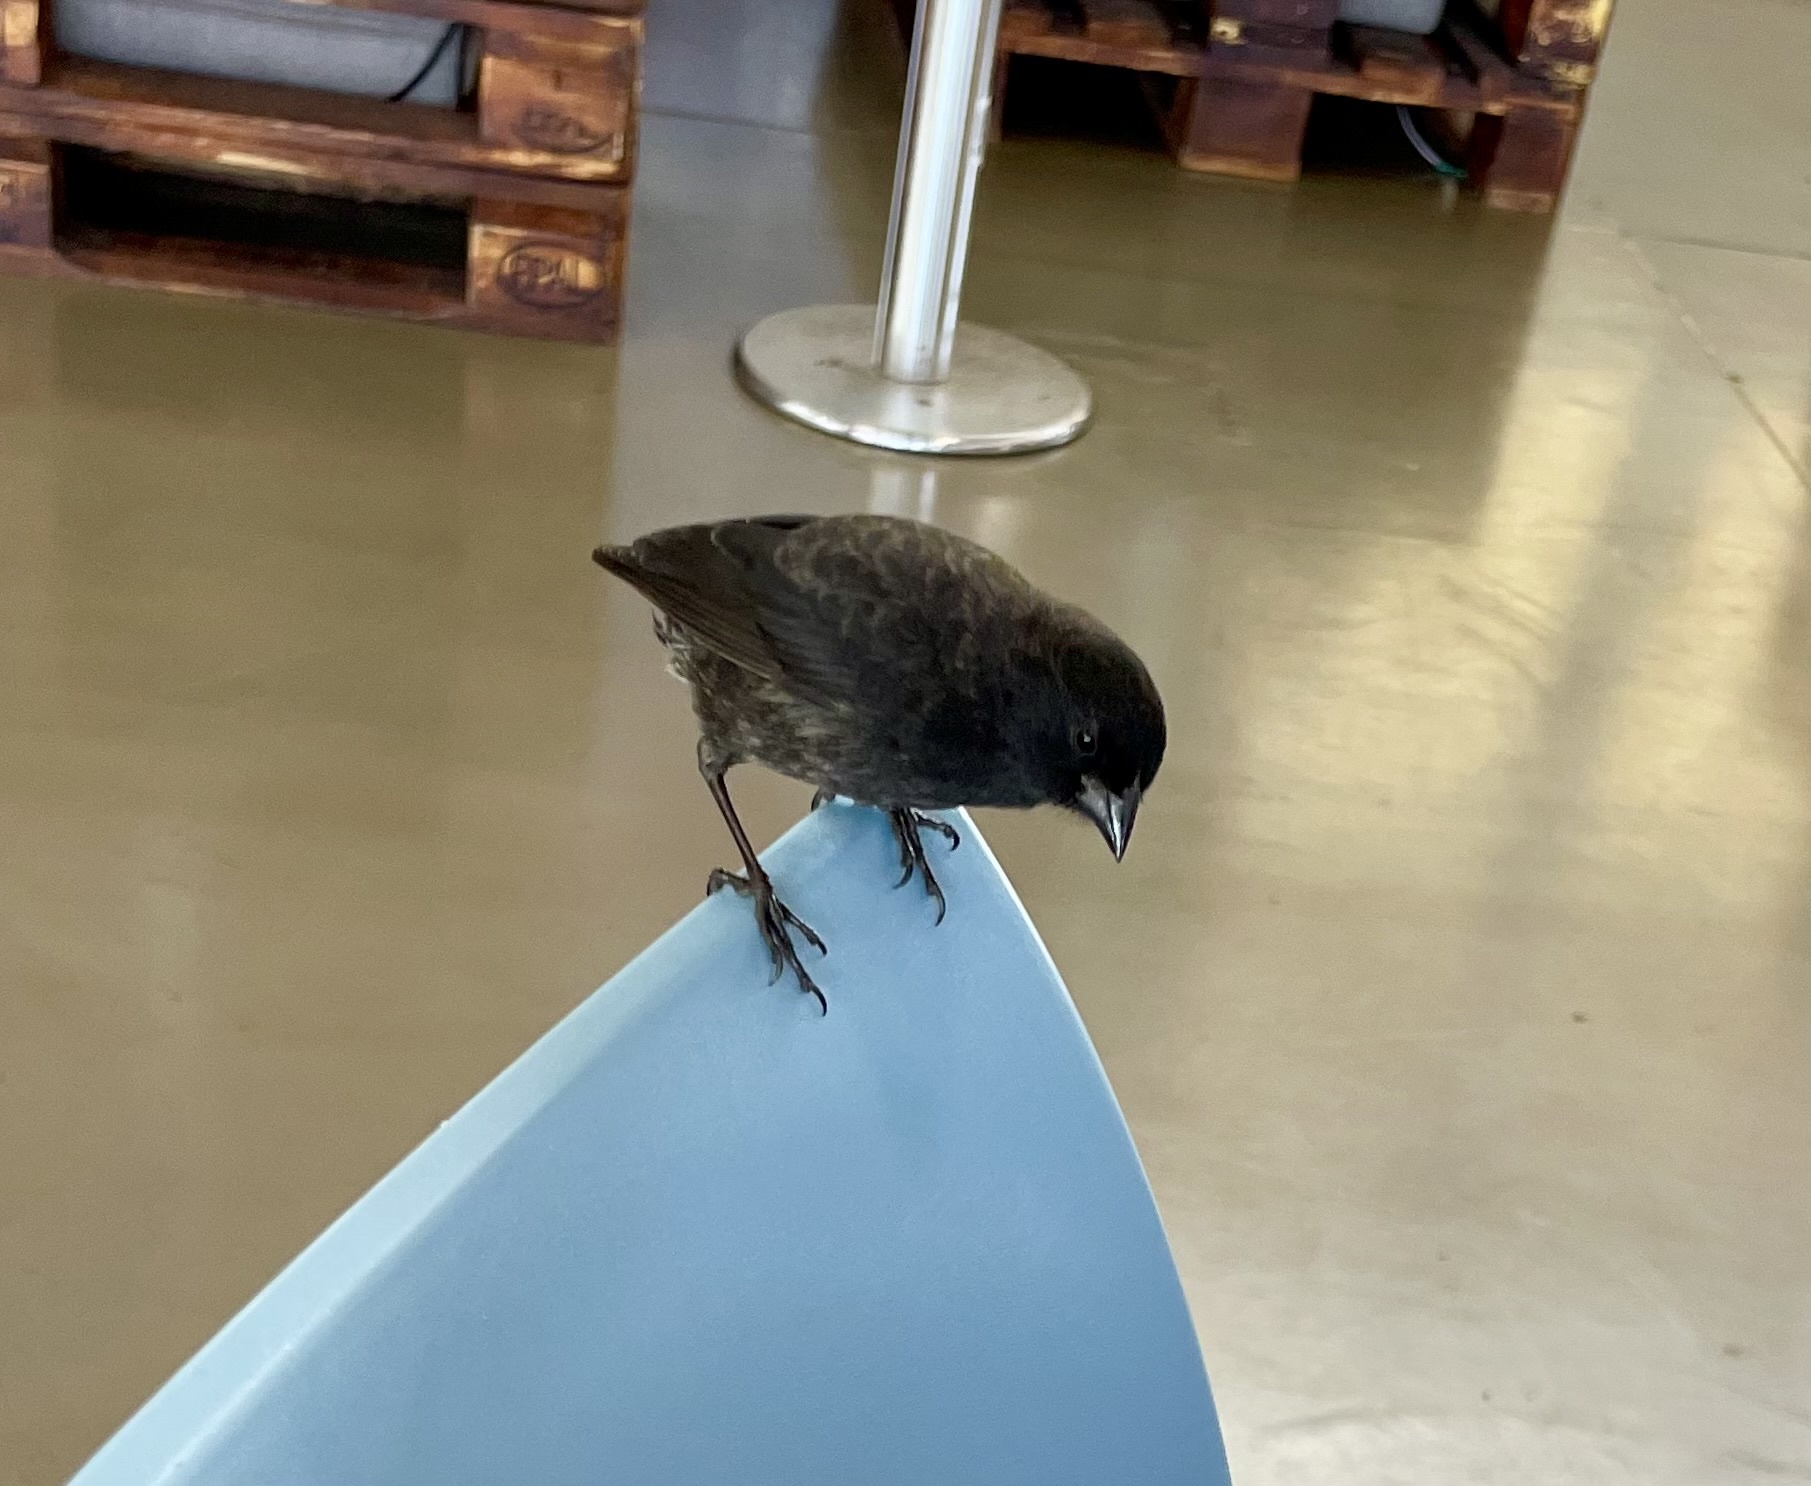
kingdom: Animalia
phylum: Chordata
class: Aves
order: Passeriformes
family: Thraupidae
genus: Geospiza
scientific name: Geospiza fuliginosa
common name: Small ground finch
